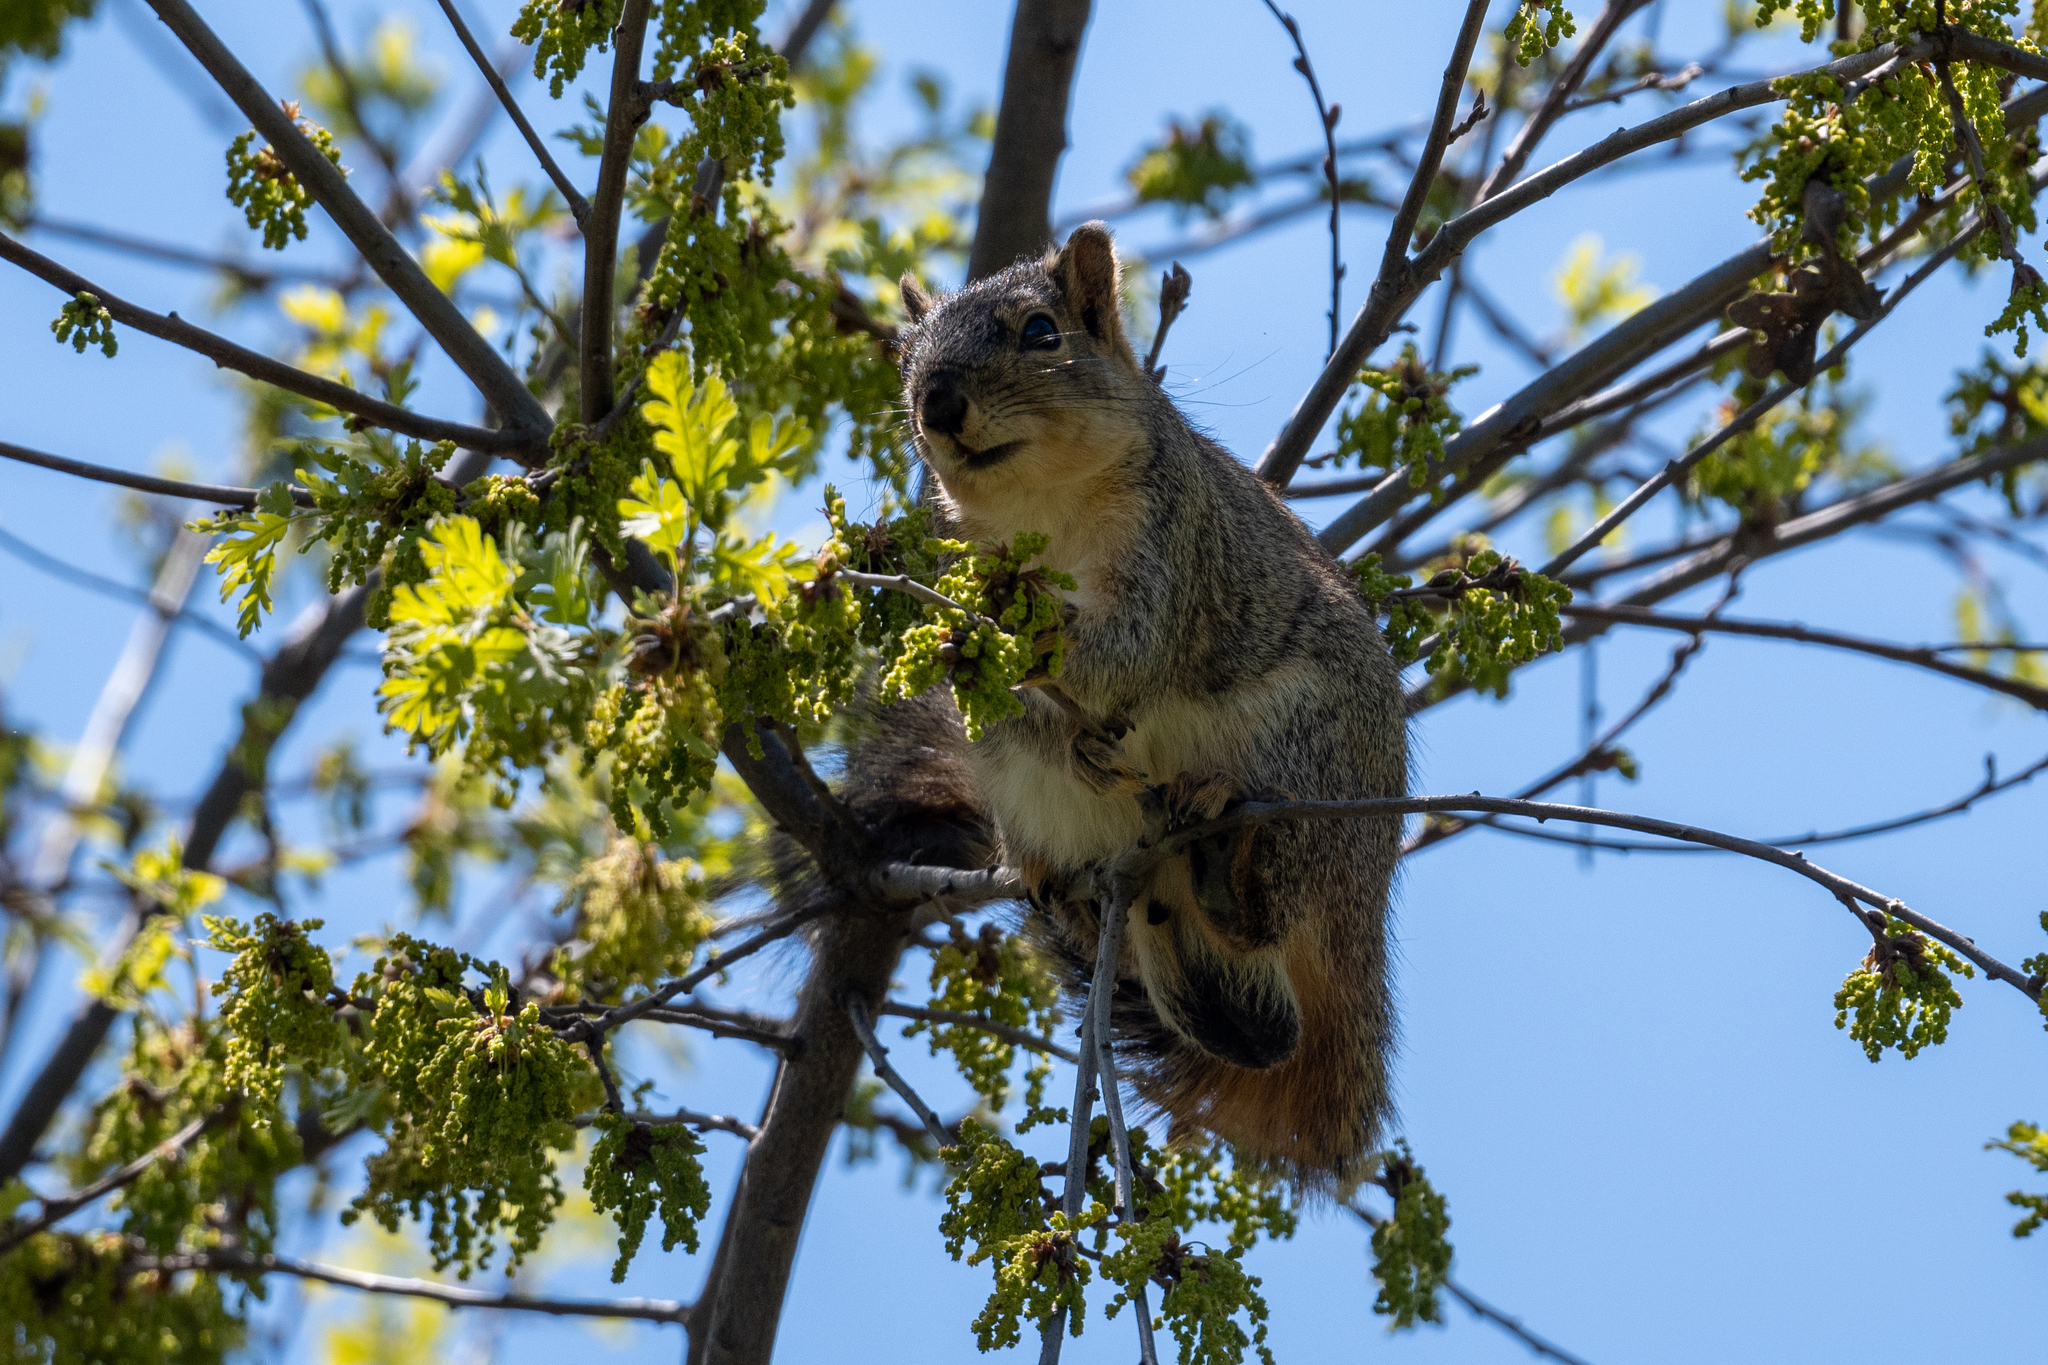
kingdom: Animalia
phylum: Chordata
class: Mammalia
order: Rodentia
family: Sciuridae
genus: Sciurus
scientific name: Sciurus niger
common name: Fox squirrel
